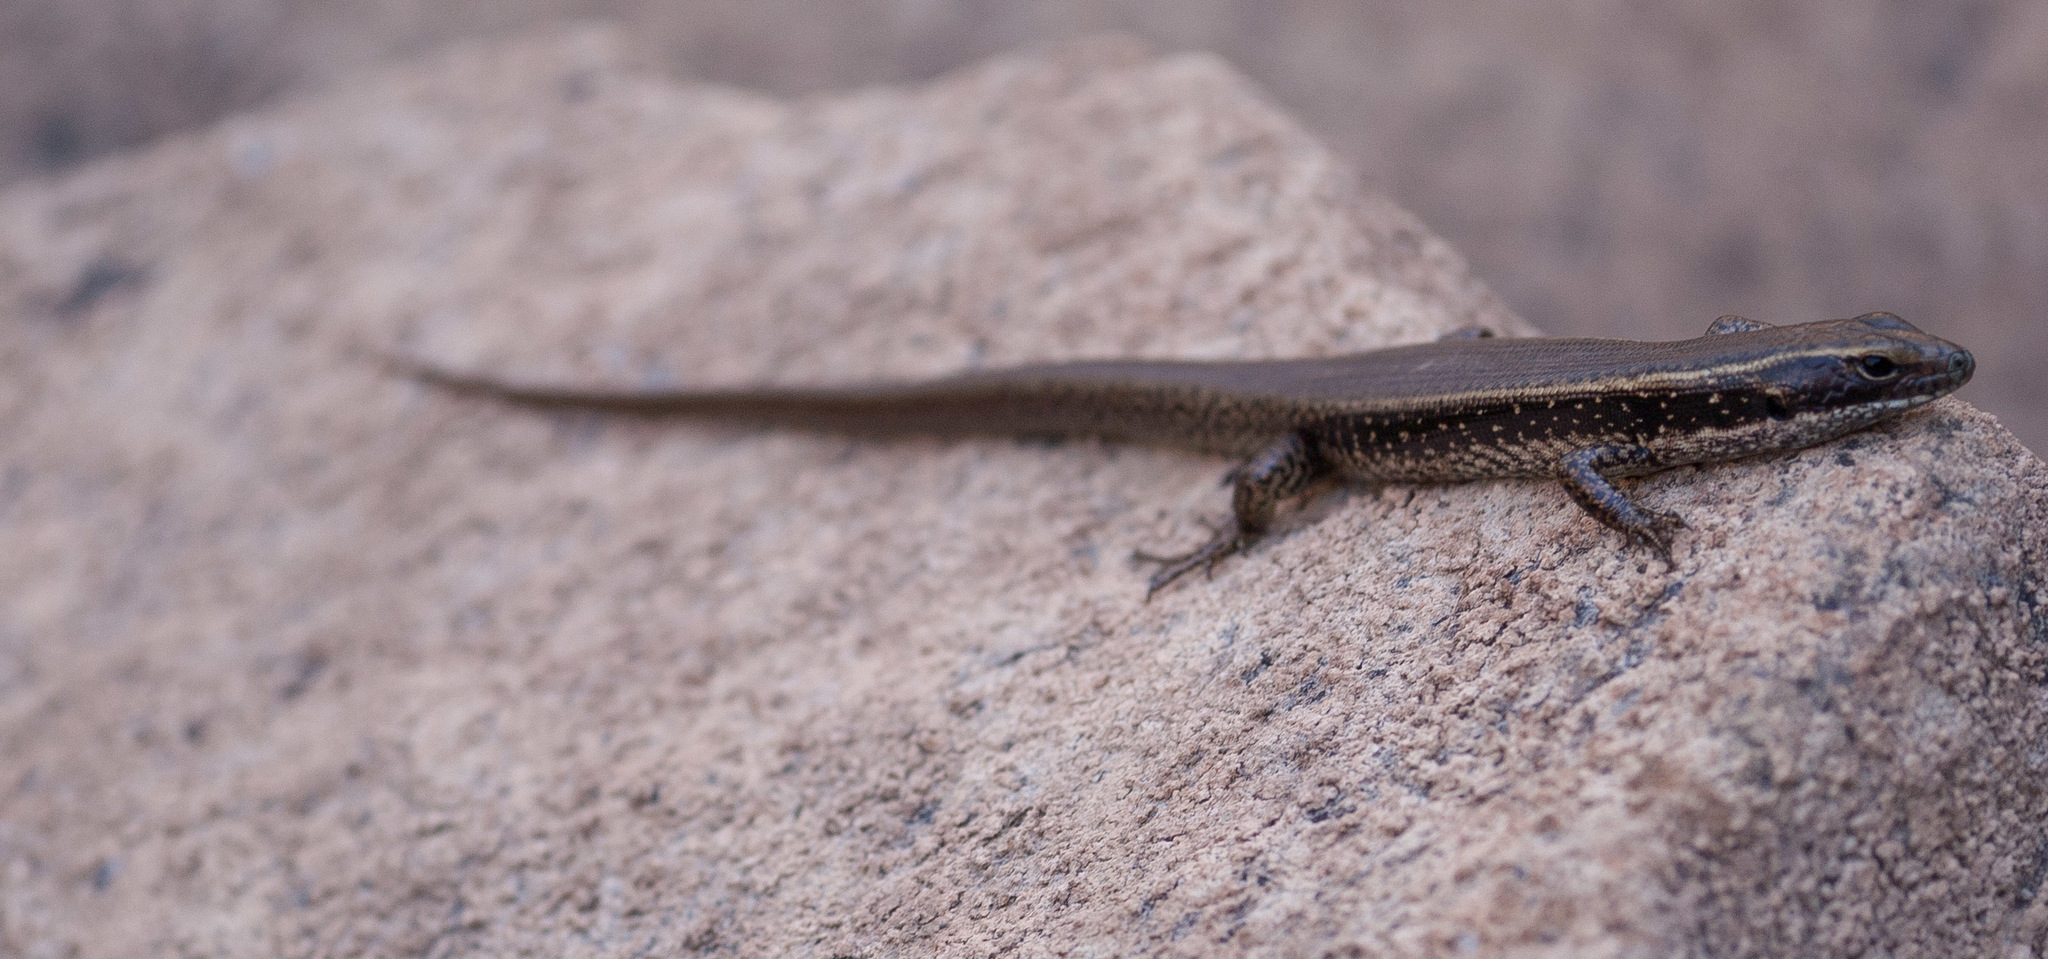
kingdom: Animalia
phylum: Chordata
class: Squamata
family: Scincidae
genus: Eulamprus
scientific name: Eulamprus quoyii
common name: Eastern water skink
